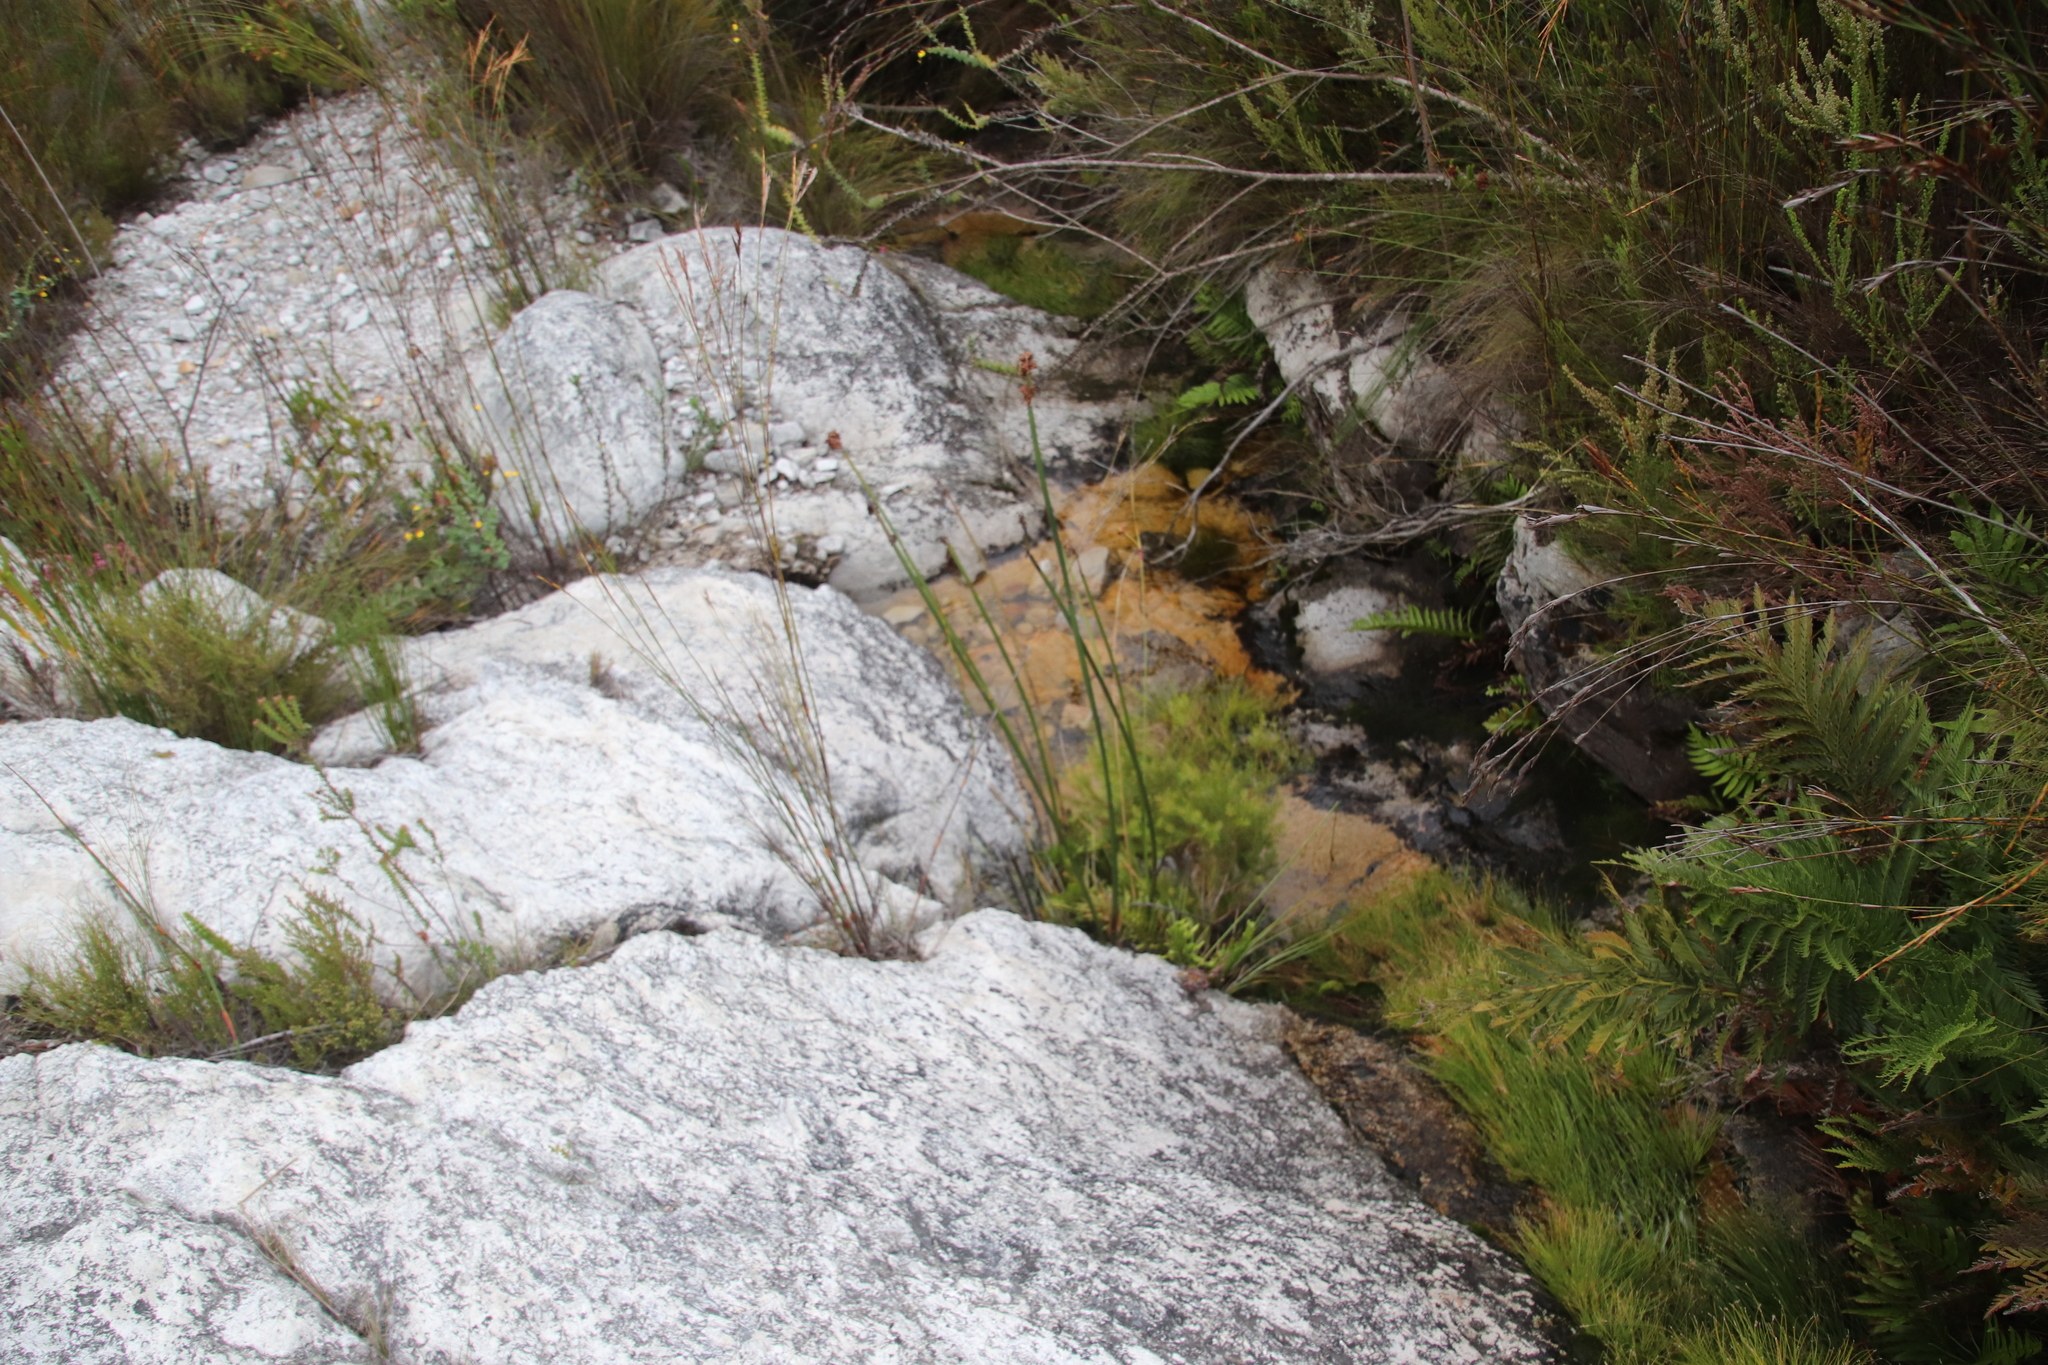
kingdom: Plantae
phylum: Tracheophyta
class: Liliopsida
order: Poales
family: Restionaceae
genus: Elegia
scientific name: Elegia mucronata
